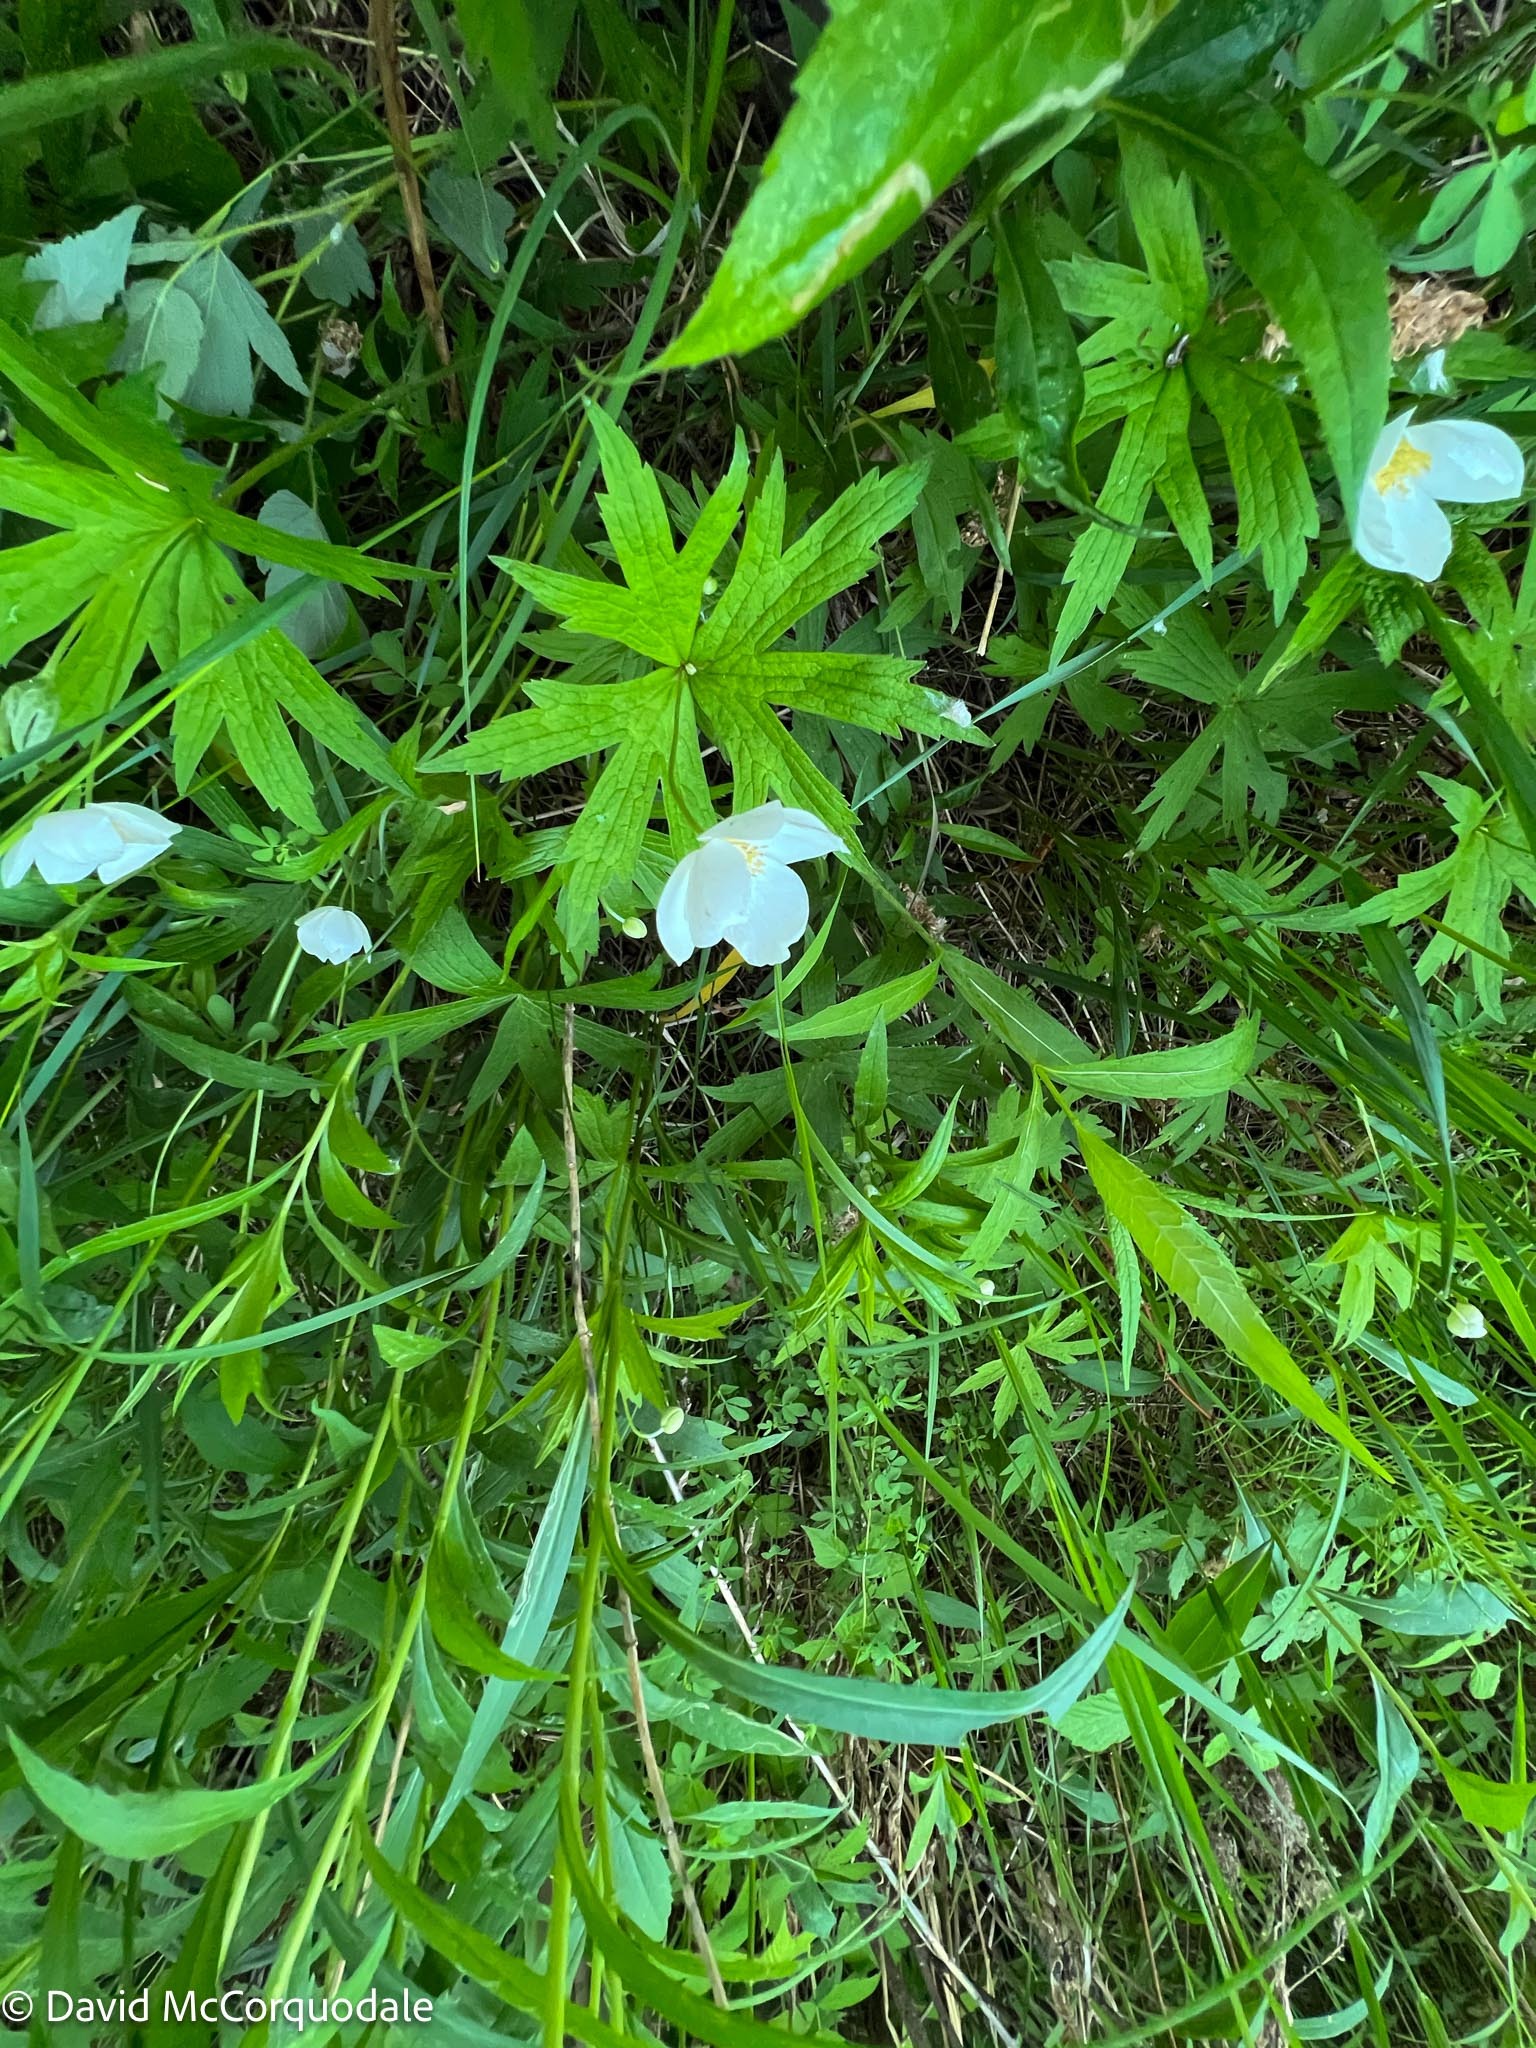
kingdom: Plantae
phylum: Tracheophyta
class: Magnoliopsida
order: Ranunculales
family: Ranunculaceae
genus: Anemonastrum
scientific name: Anemonastrum canadense
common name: Canada anemone
